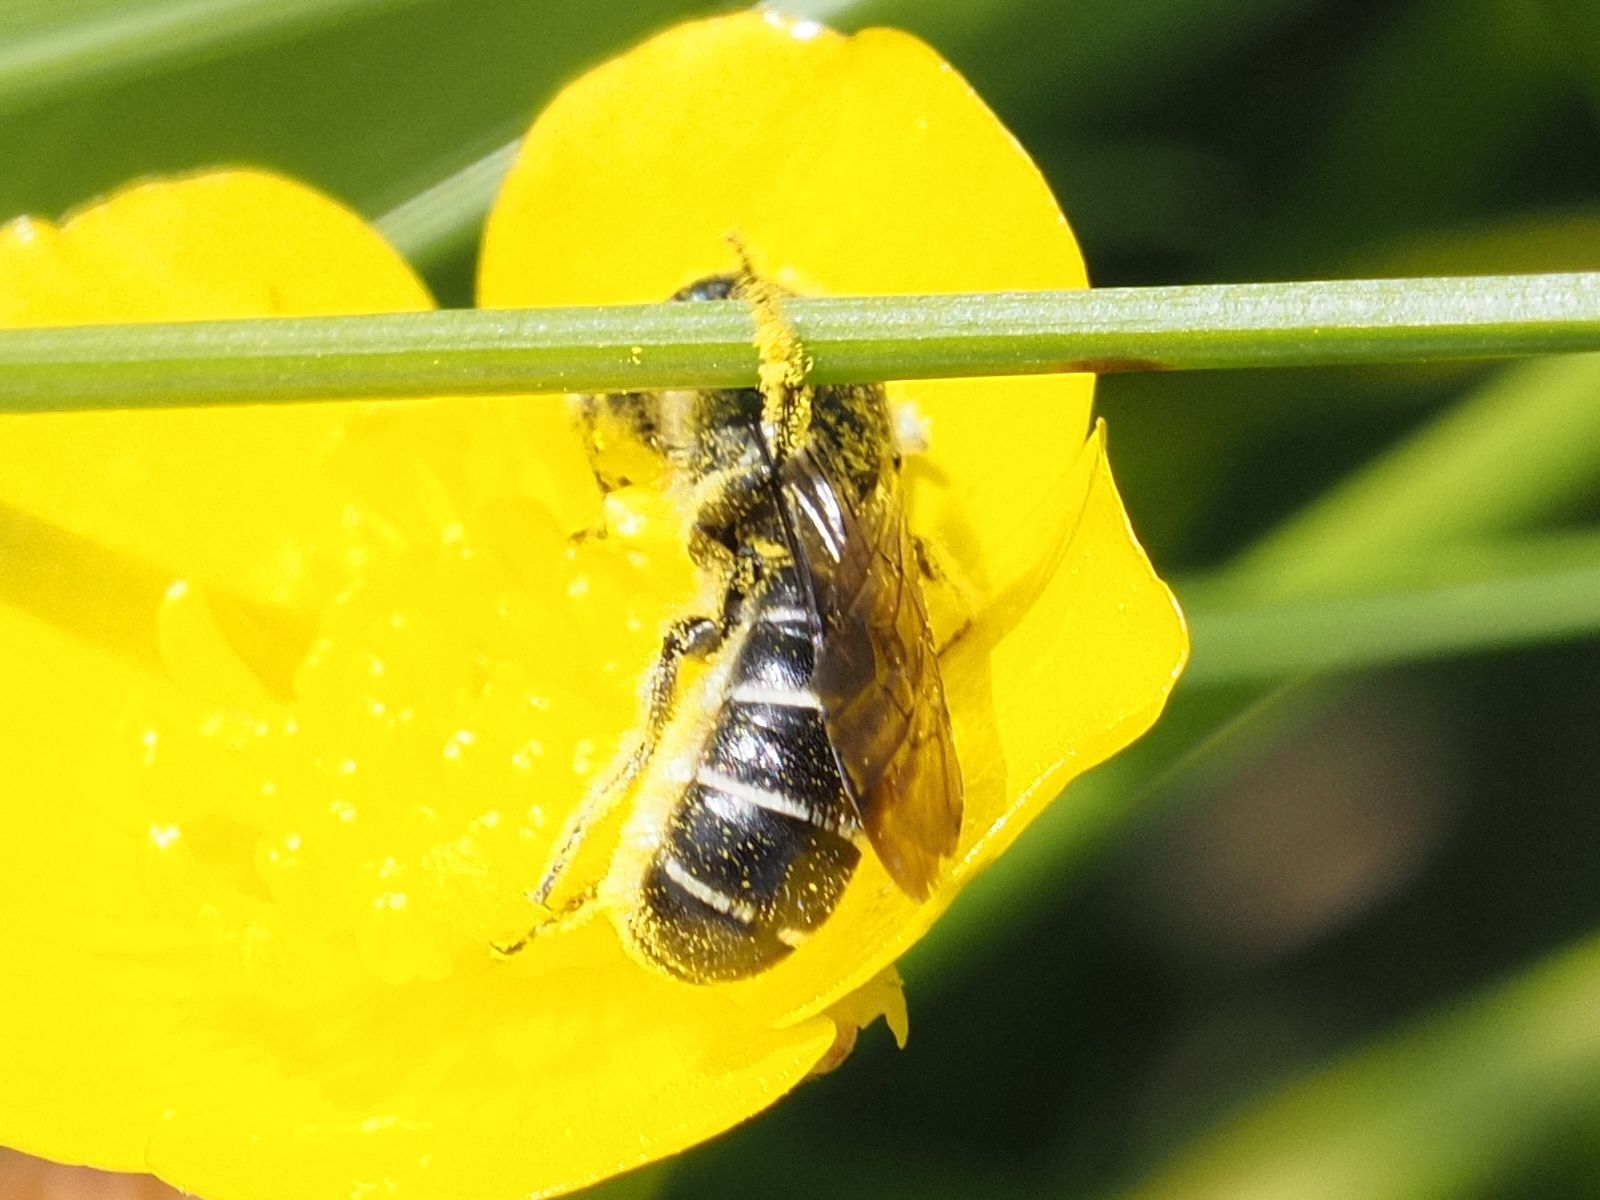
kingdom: Animalia
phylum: Arthropoda
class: Insecta
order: Hymenoptera
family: Megachilidae
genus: Chelostoma
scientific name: Chelostoma florisomne
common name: Sleepy carpenter bee
